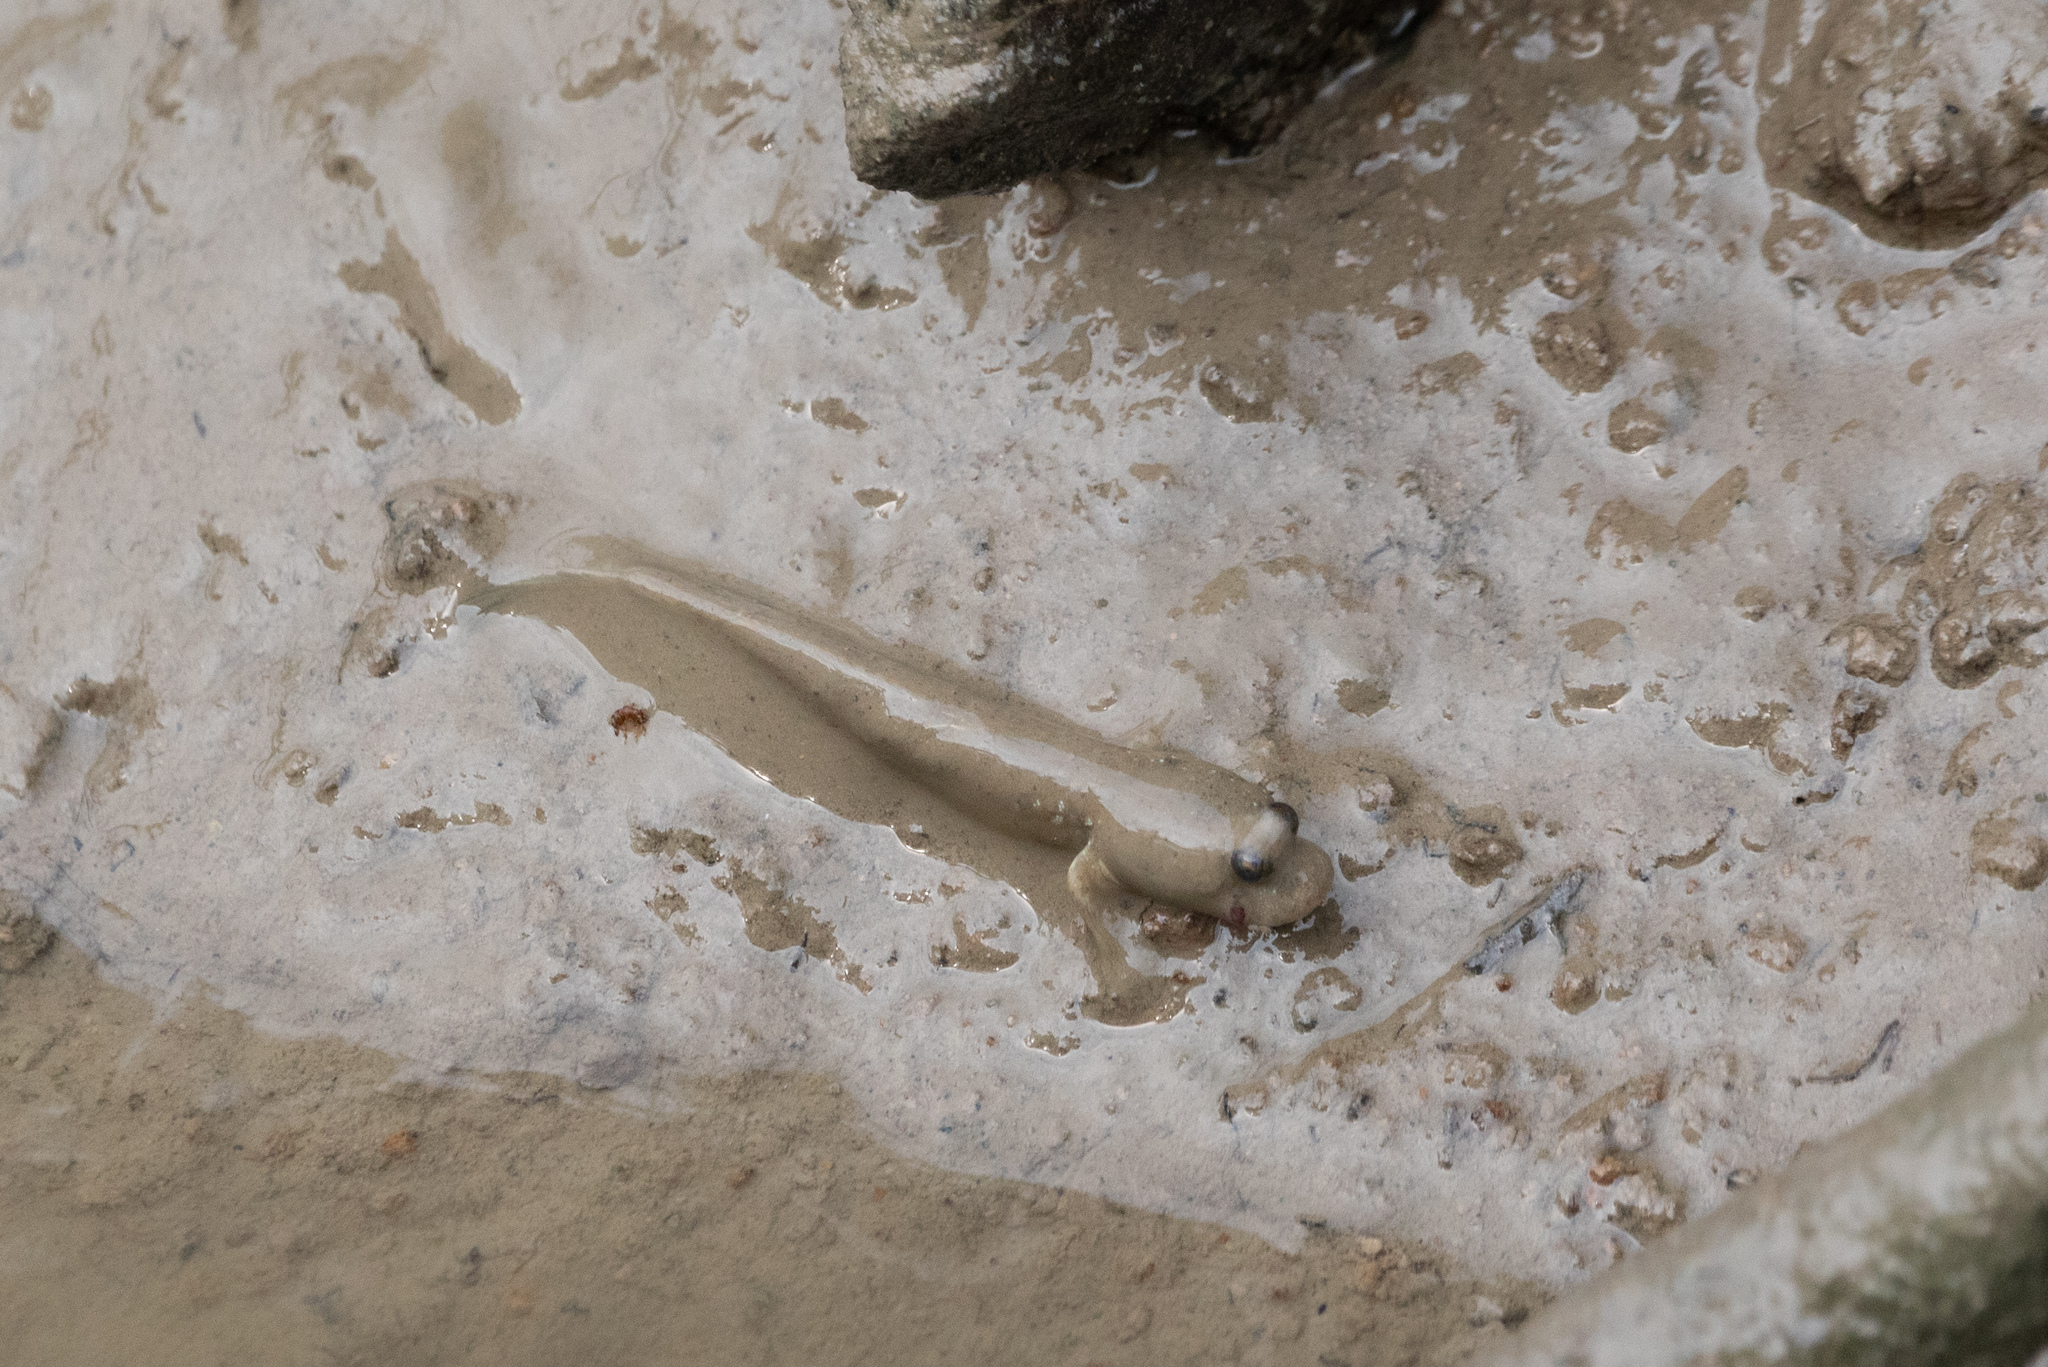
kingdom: Animalia
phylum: Chordata
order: Perciformes
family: Gobiidae
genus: Boleophthalmus
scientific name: Boleophthalmus pectinirostris
